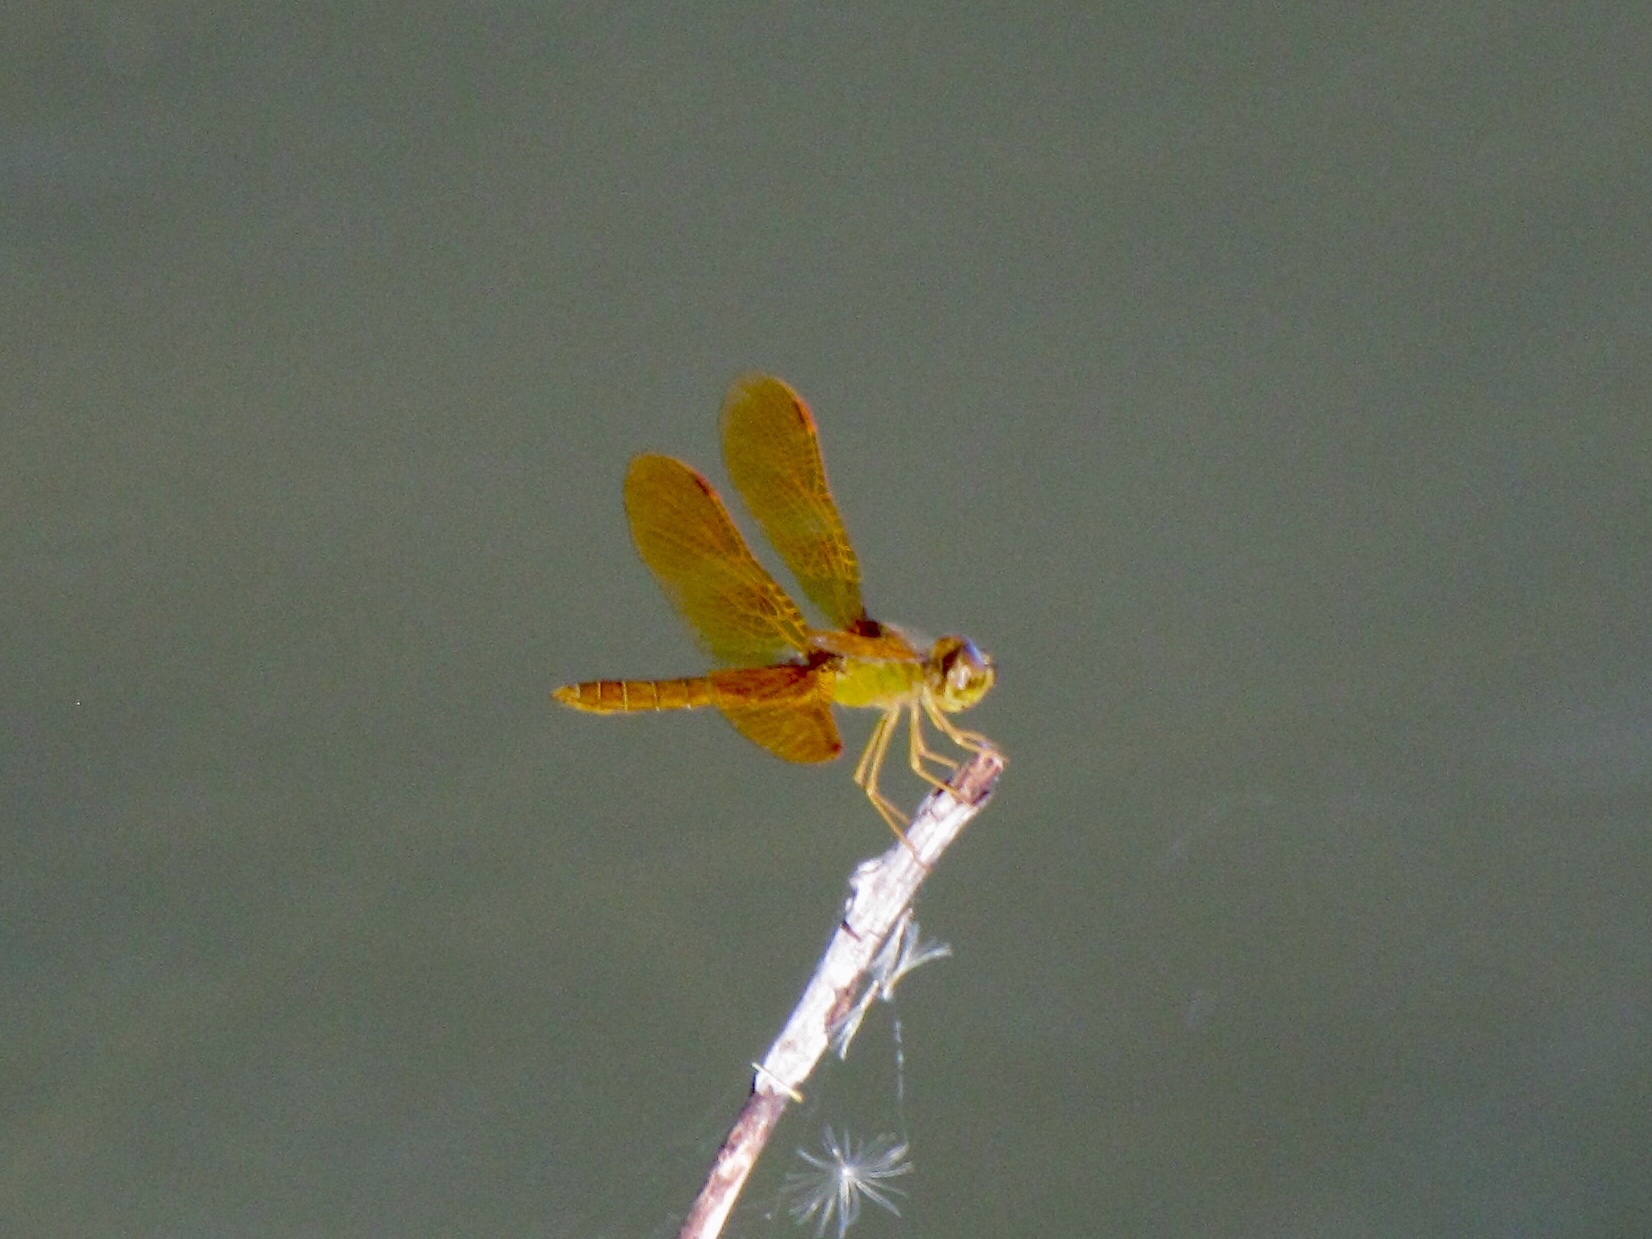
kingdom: Animalia
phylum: Arthropoda
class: Insecta
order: Odonata
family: Libellulidae
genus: Perithemis
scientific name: Perithemis intensa
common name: Mexican amberwing
